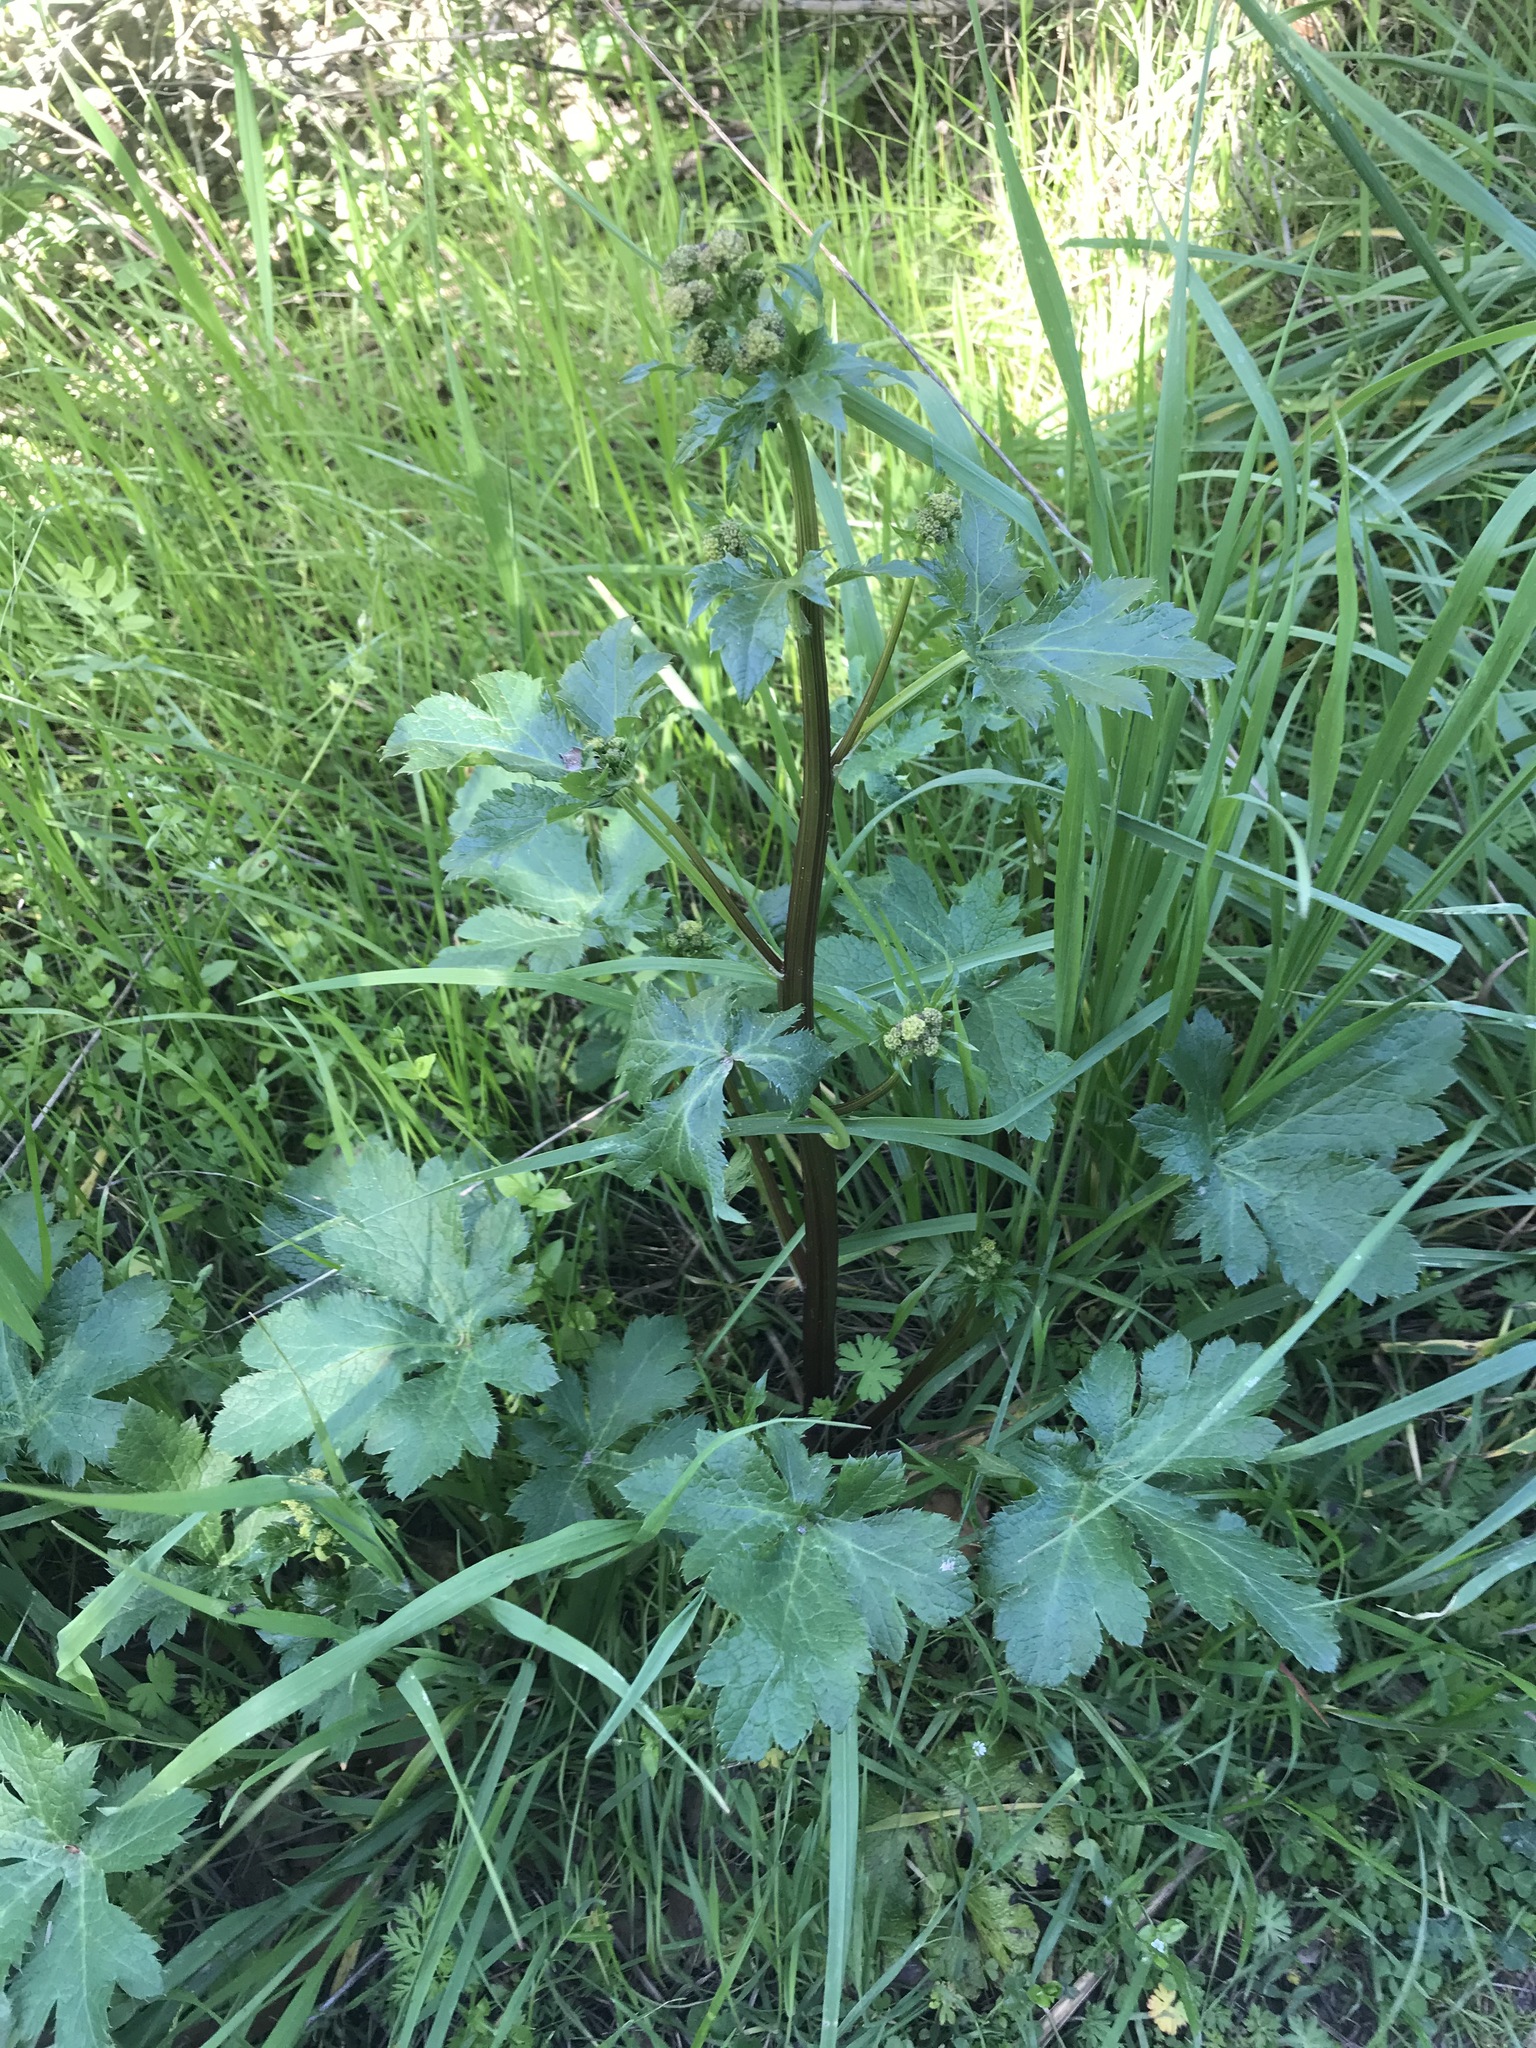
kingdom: Plantae
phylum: Tracheophyta
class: Magnoliopsida
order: Apiales
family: Apiaceae
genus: Sanicula
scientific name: Sanicula crassicaulis
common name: Western snakeroot
